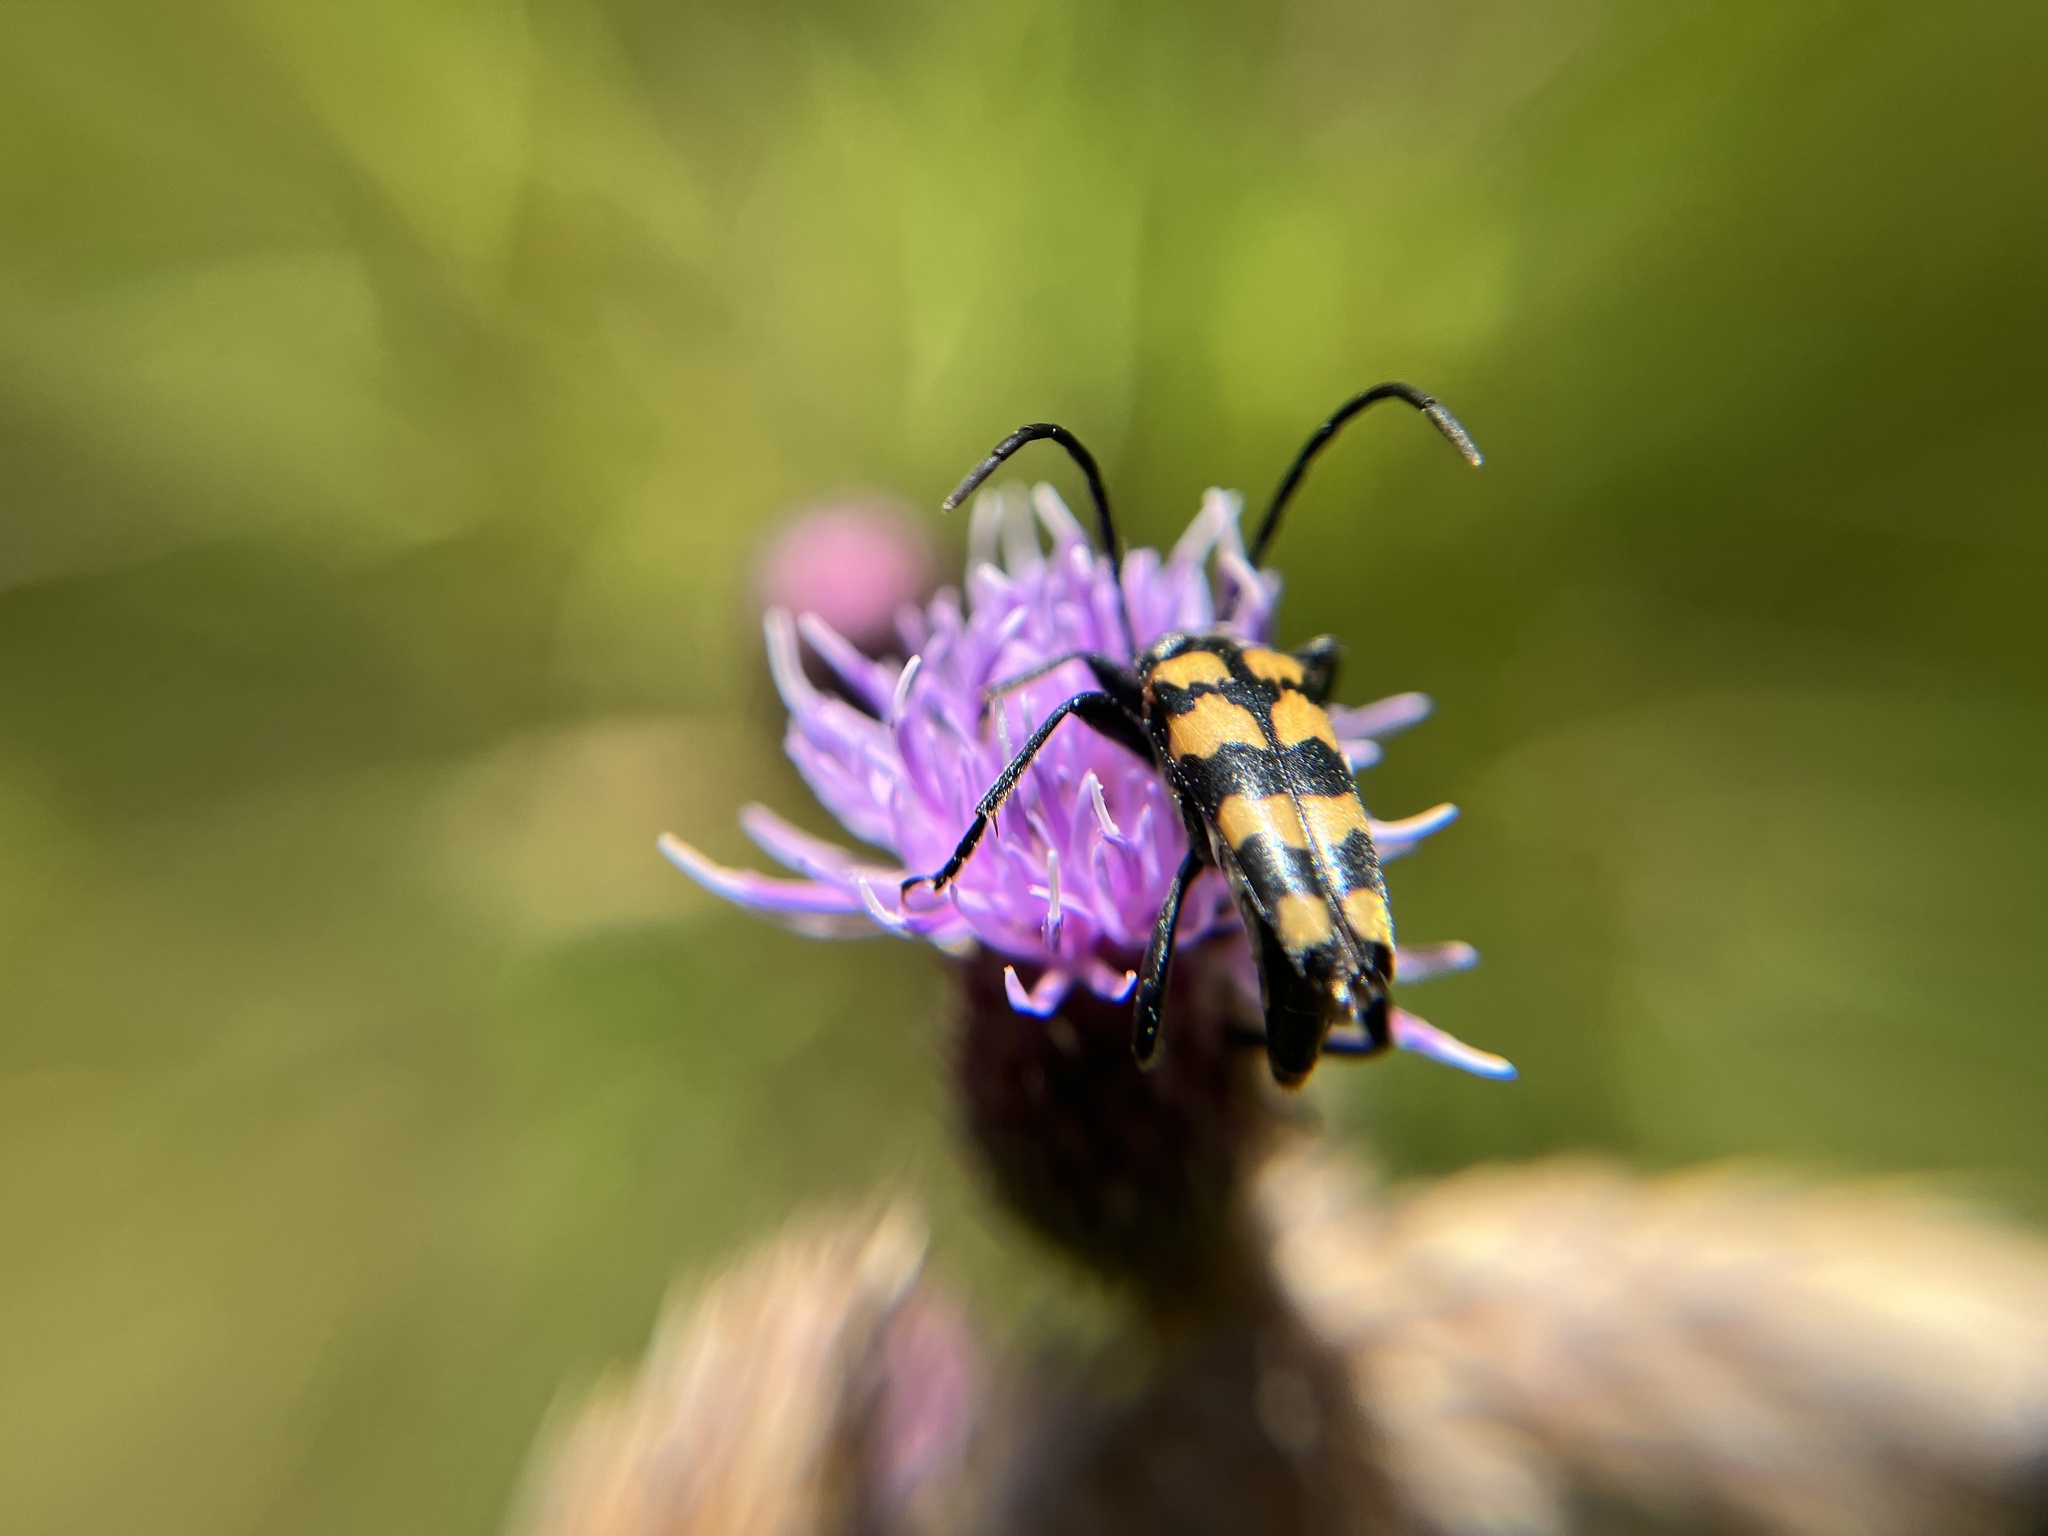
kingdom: Animalia
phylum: Arthropoda
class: Insecta
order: Coleoptera
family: Cerambycidae
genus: Leptura
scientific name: Leptura quadrifasciata
